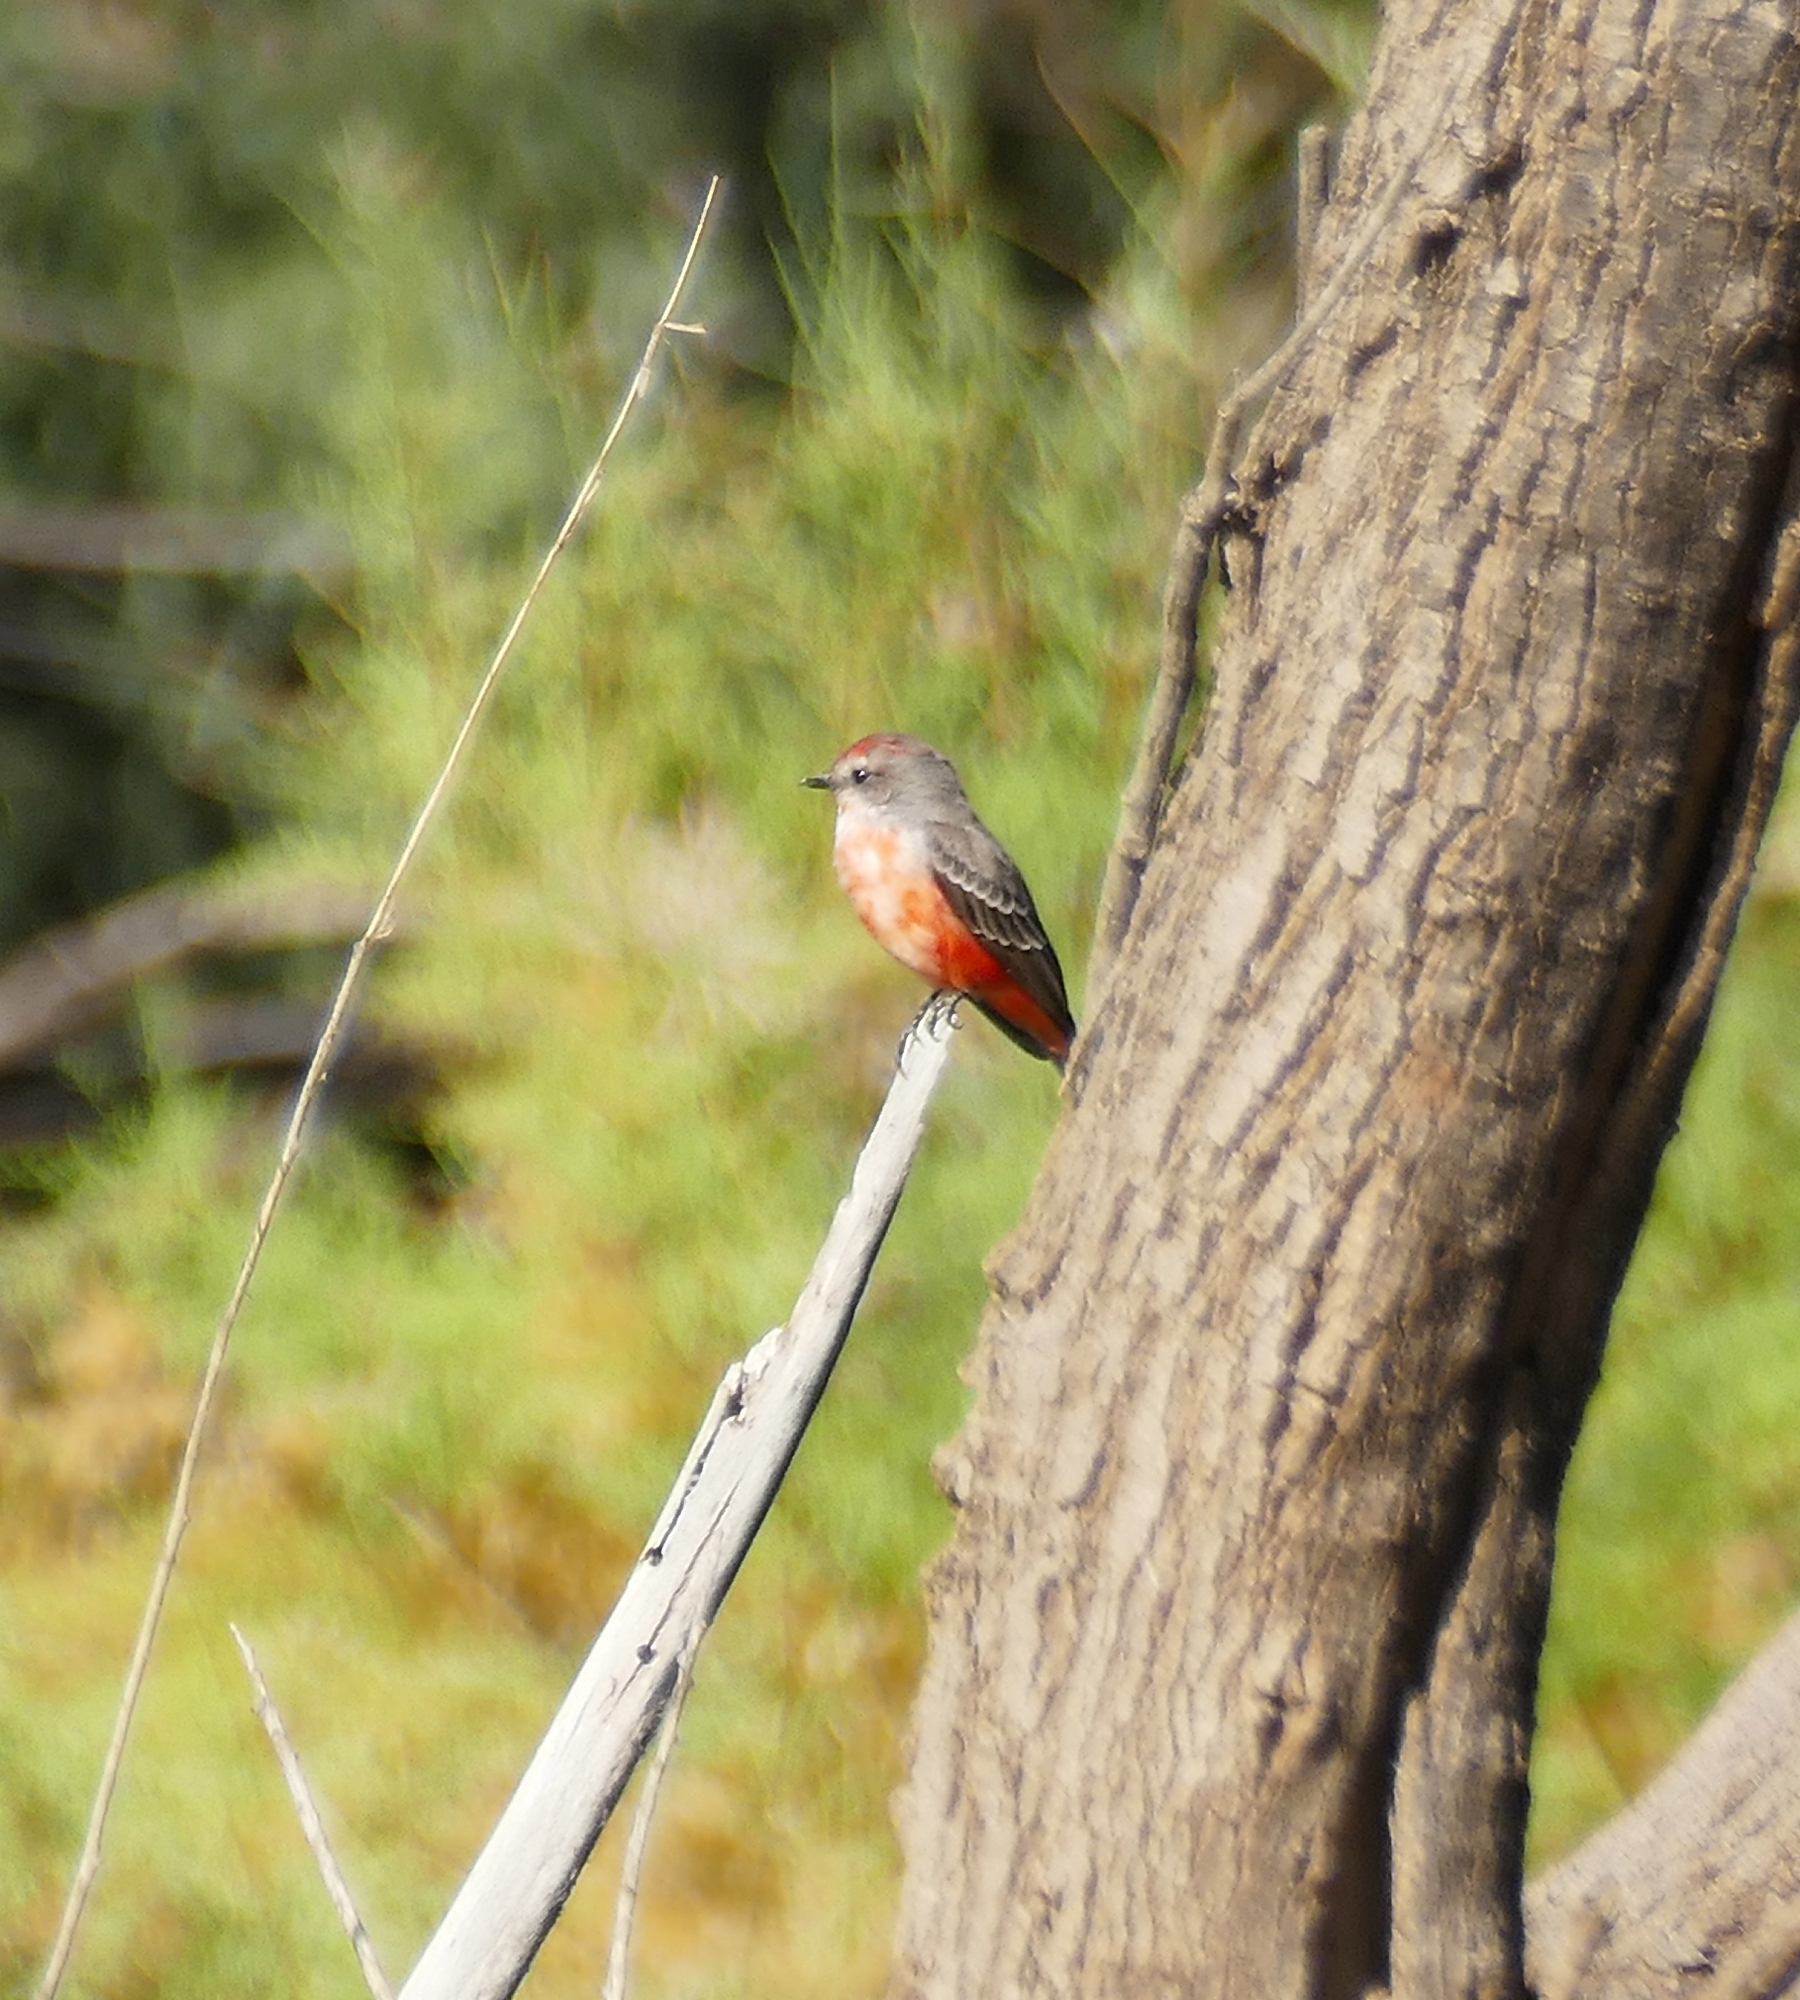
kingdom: Animalia
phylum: Chordata
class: Aves
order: Passeriformes
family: Tyrannidae
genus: Pyrocephalus
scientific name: Pyrocephalus rubinus
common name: Vermilion flycatcher
